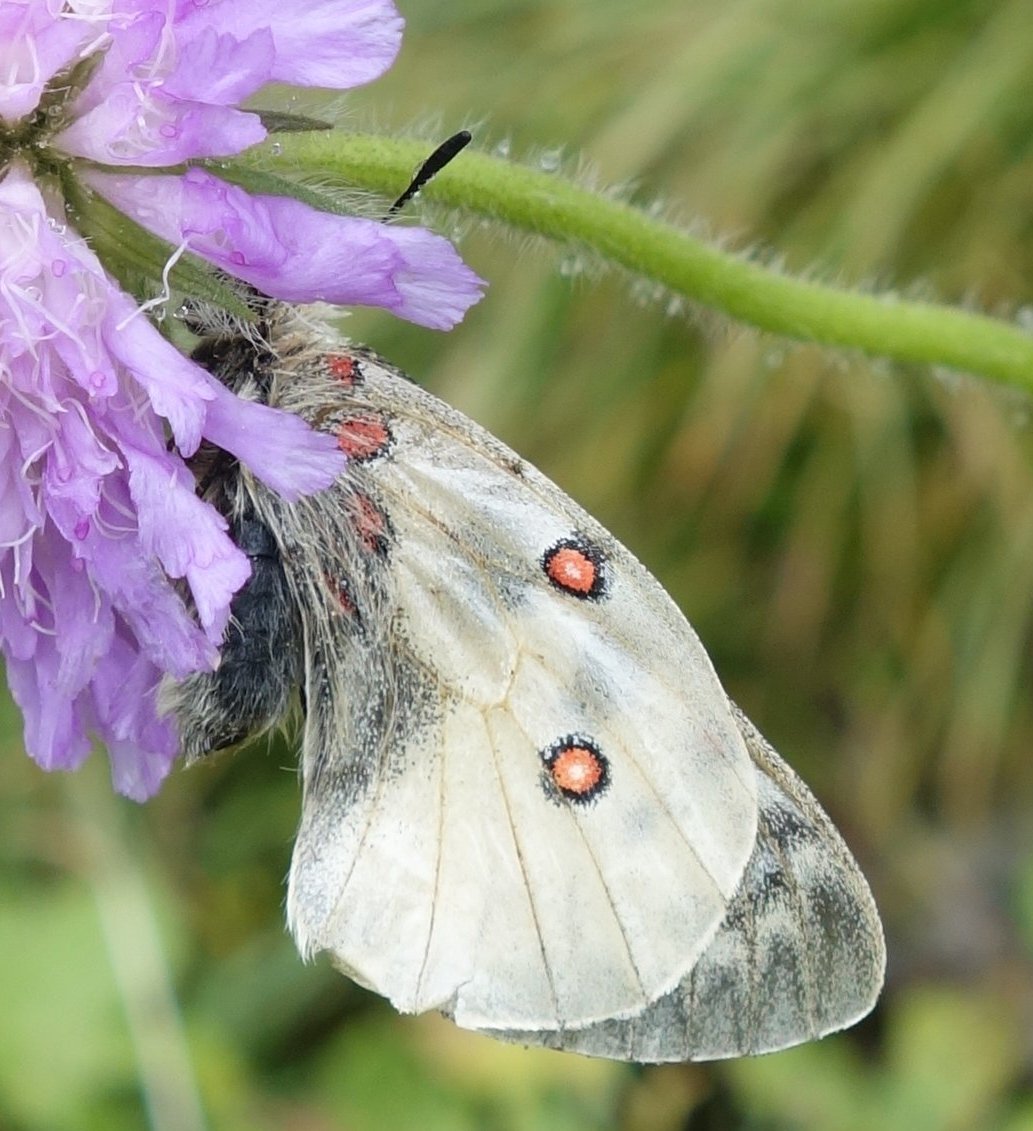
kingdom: Animalia
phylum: Arthropoda
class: Insecta
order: Lepidoptera
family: Papilionidae
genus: Parnassius
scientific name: Parnassius corybas
